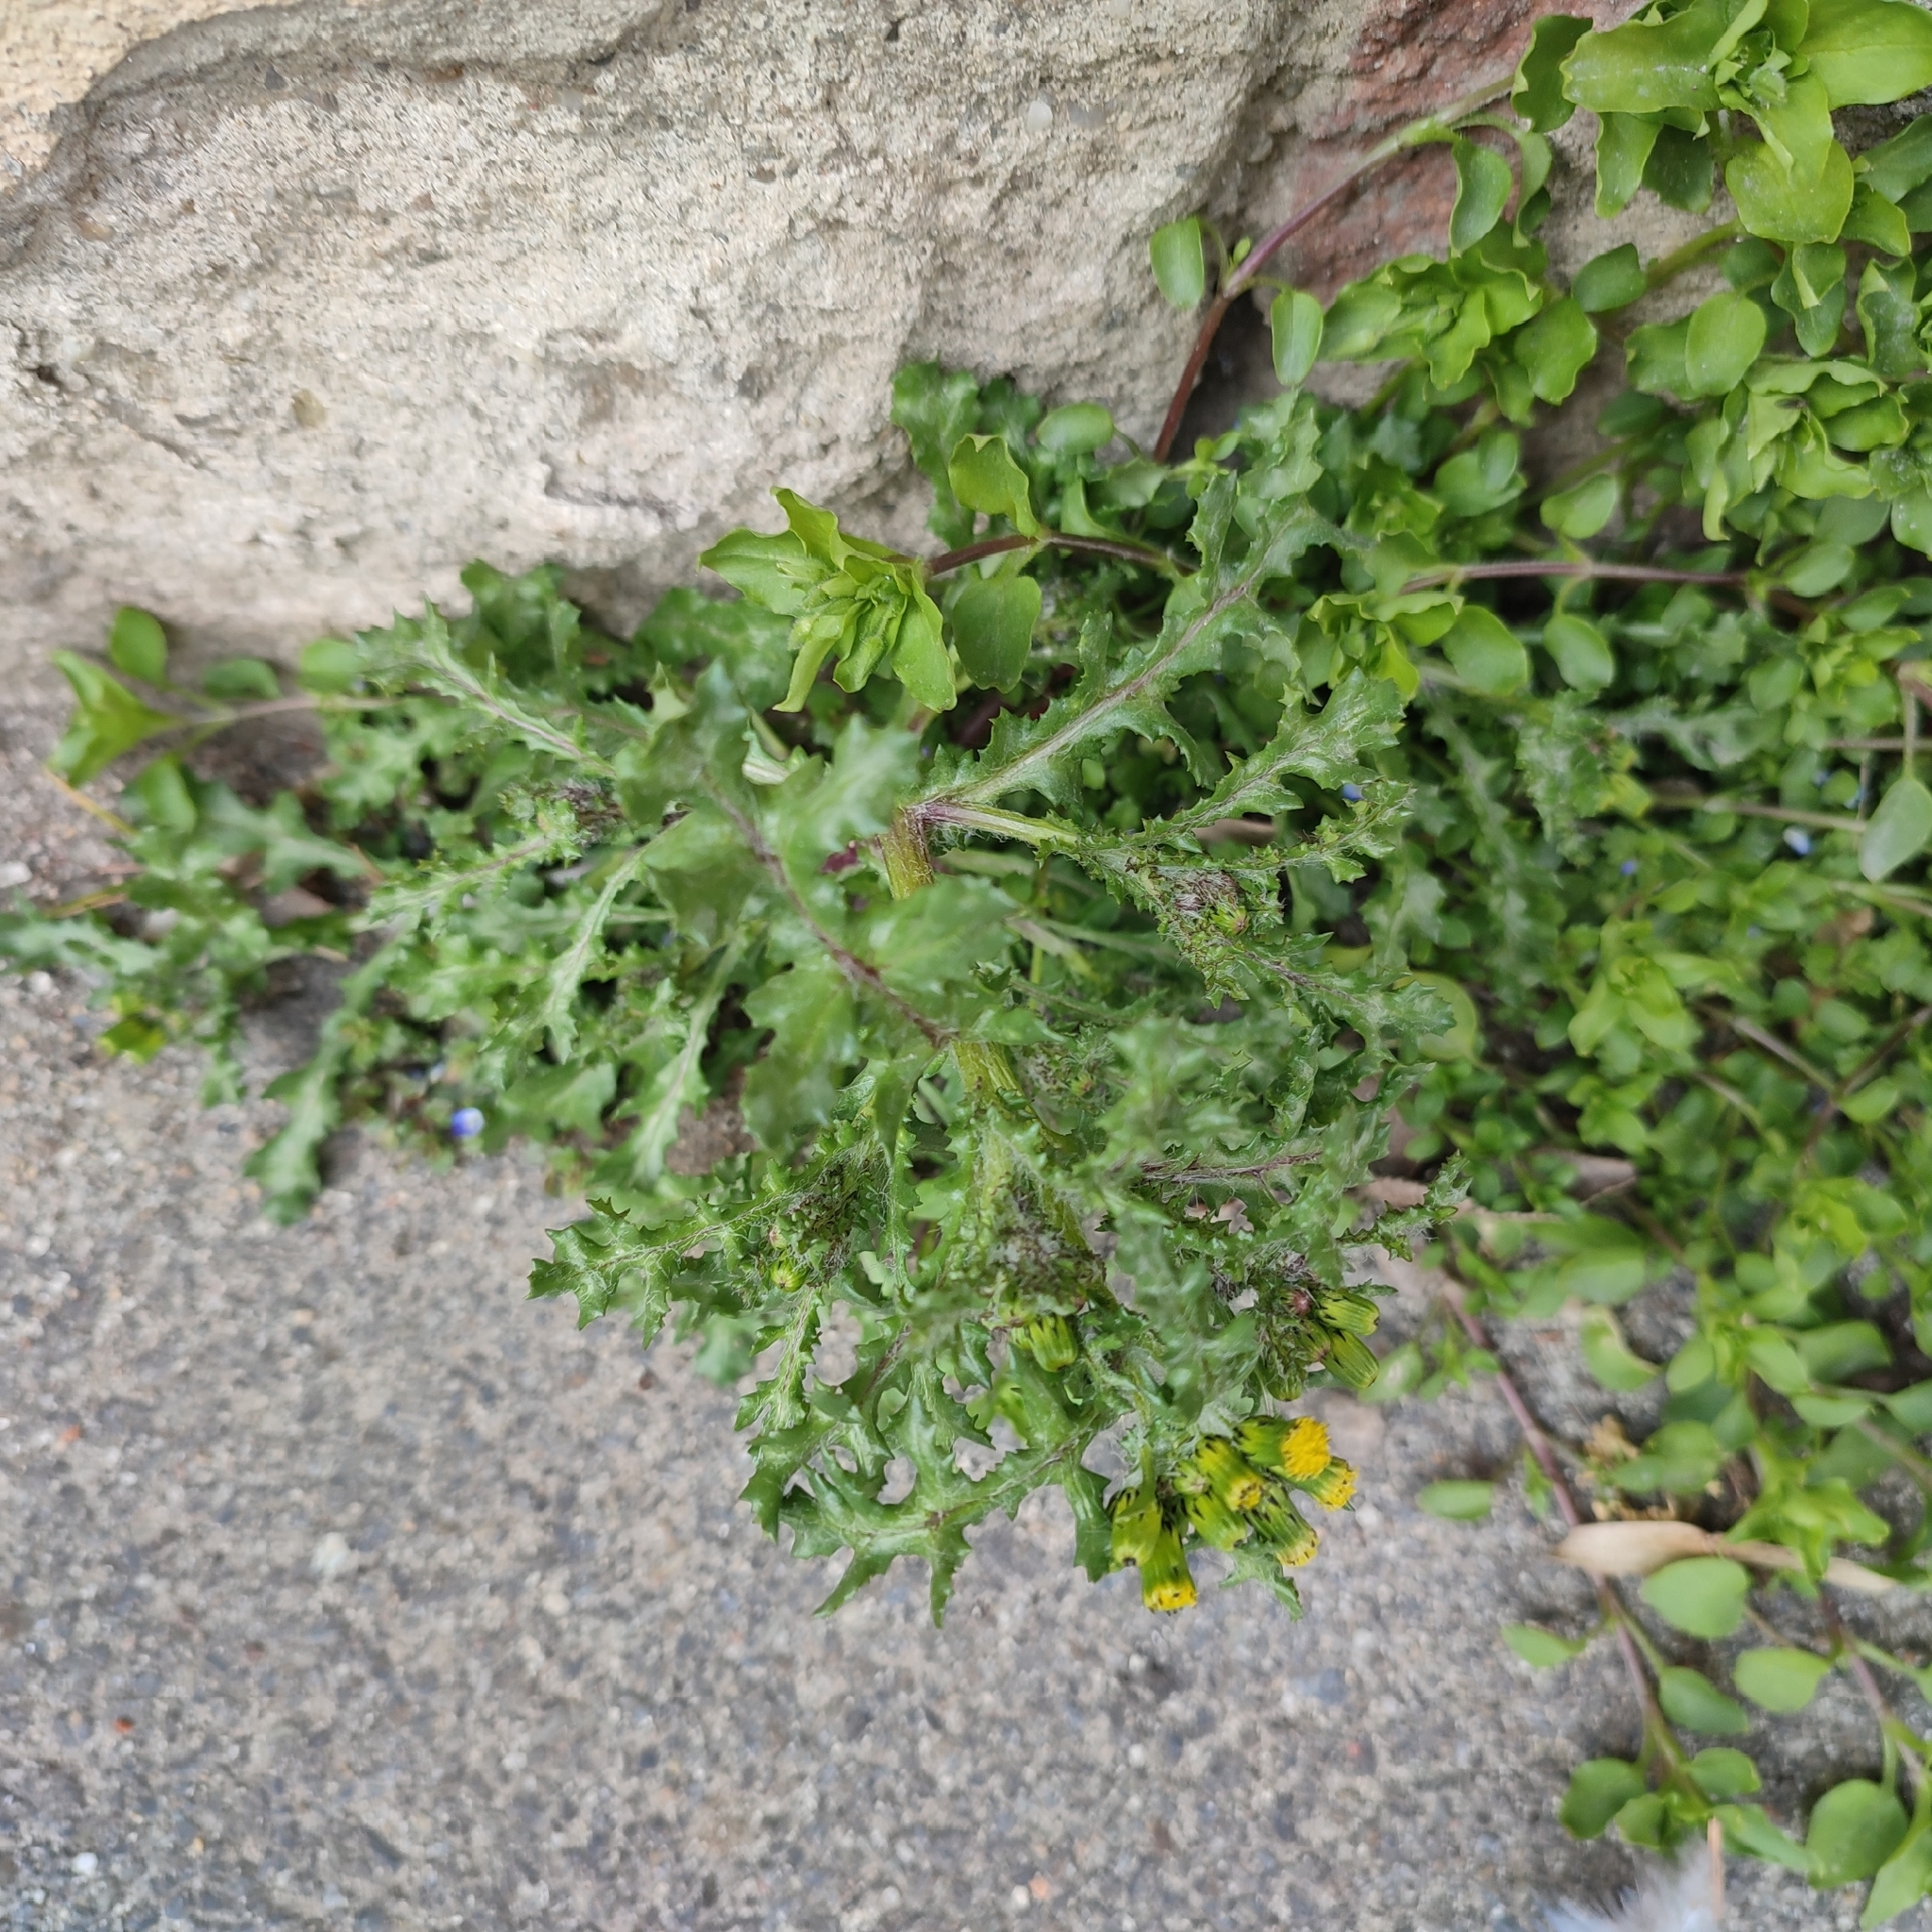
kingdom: Plantae
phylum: Tracheophyta
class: Magnoliopsida
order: Asterales
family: Asteraceae
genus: Senecio
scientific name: Senecio vulgaris
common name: Old-man-in-the-spring
